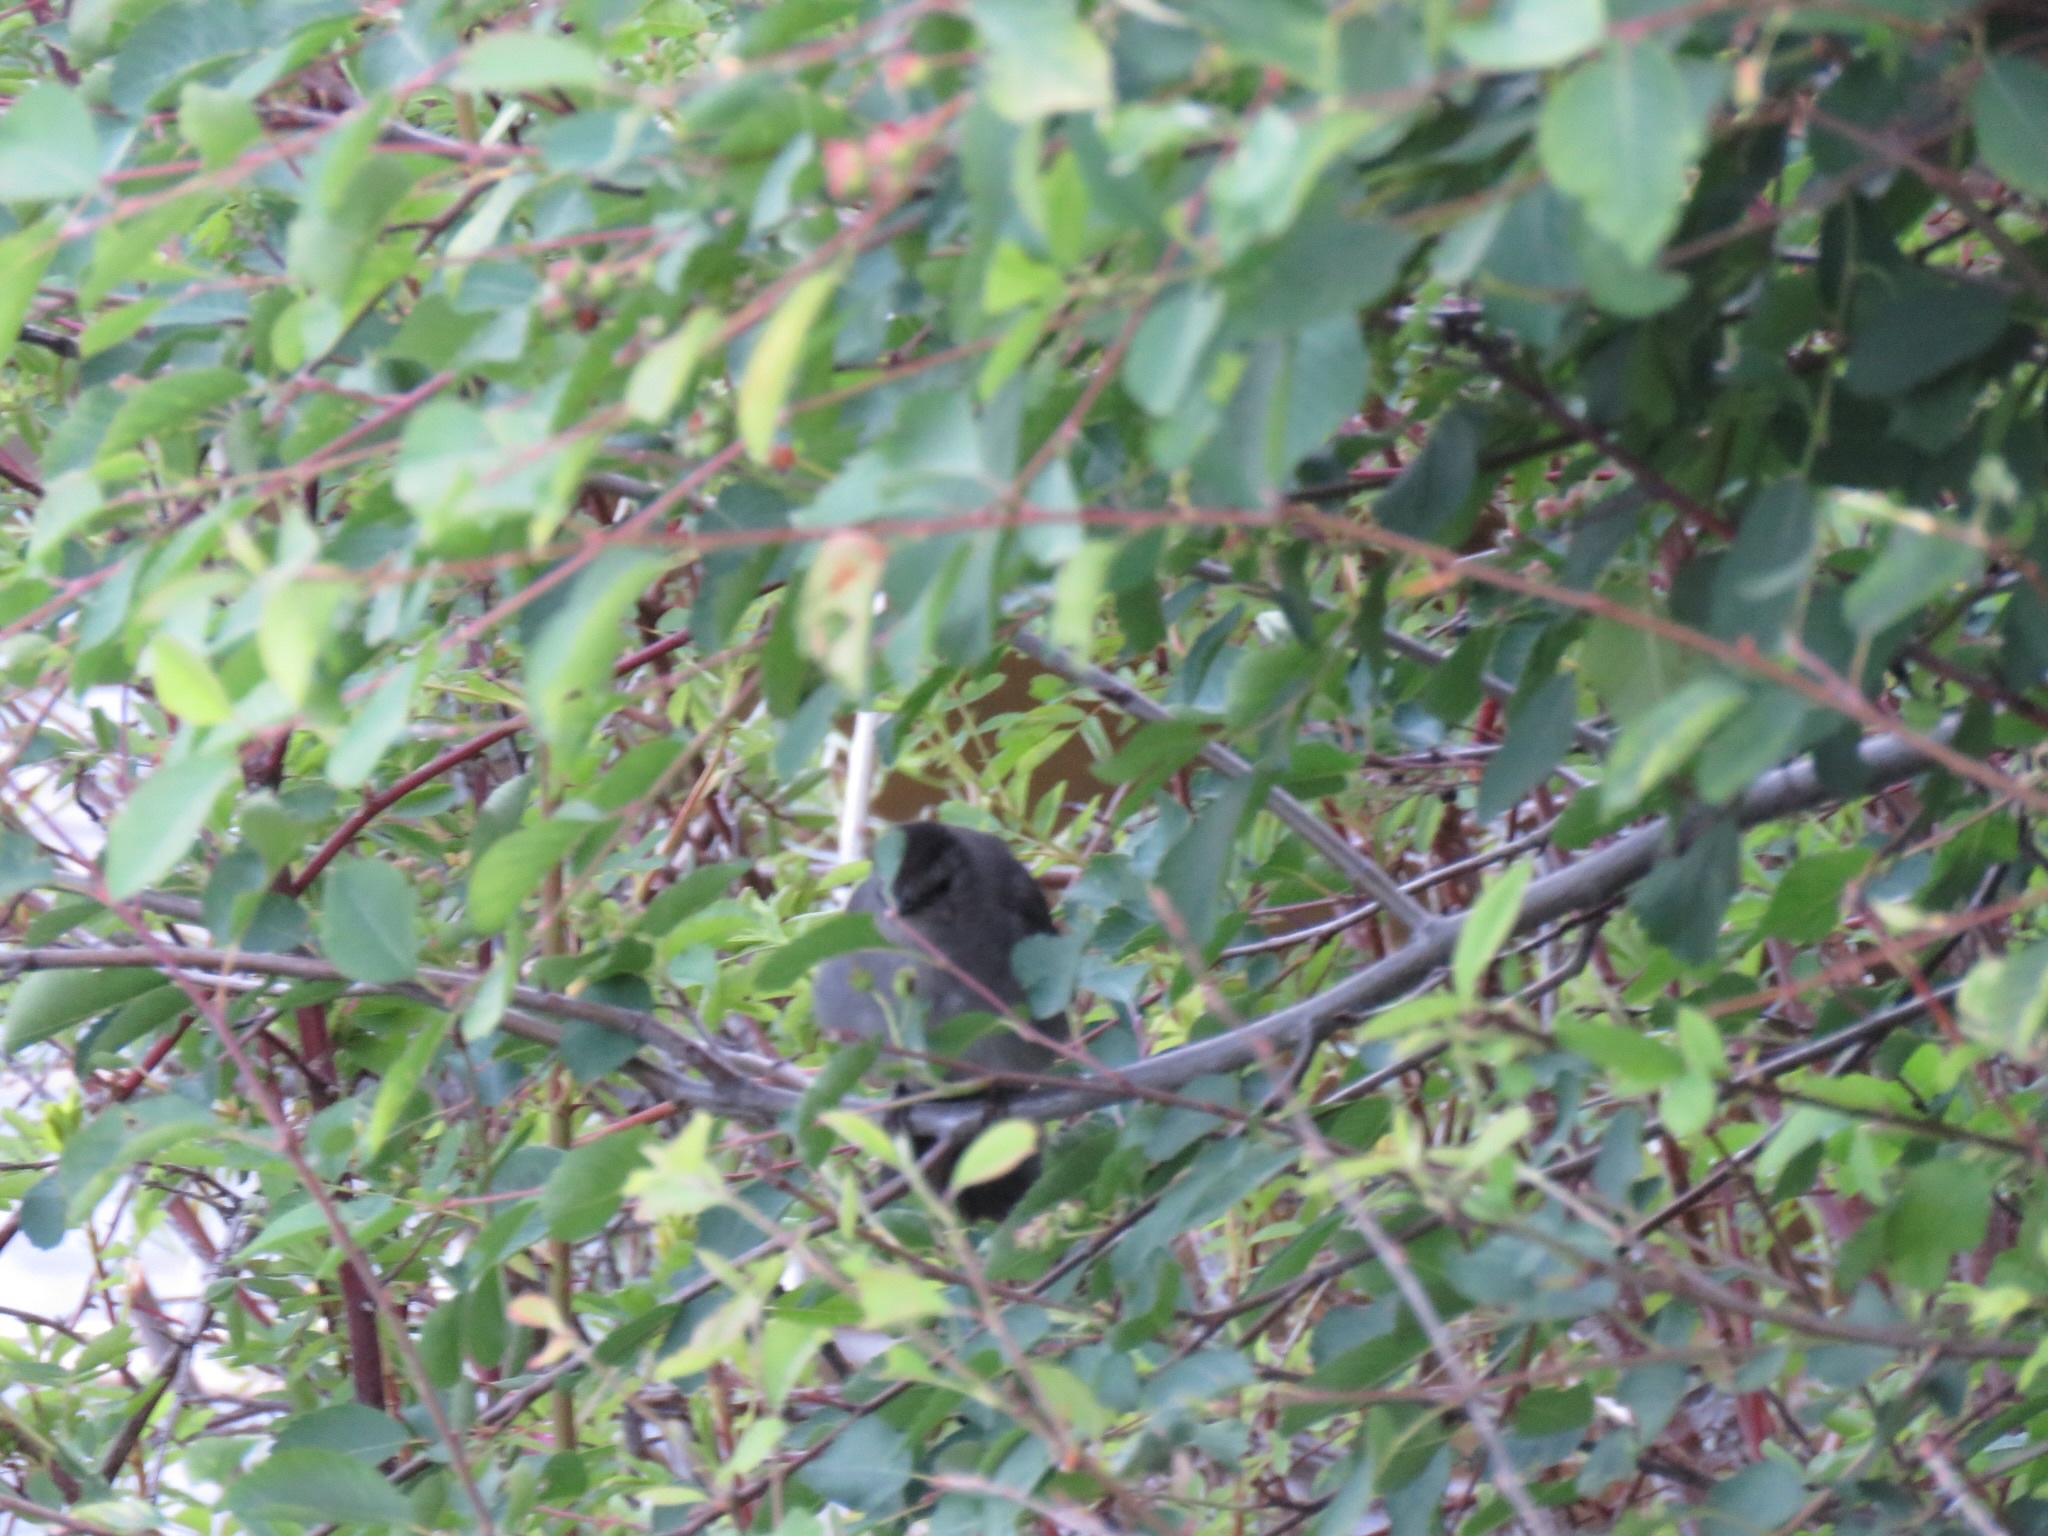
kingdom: Animalia
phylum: Chordata
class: Aves
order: Passeriformes
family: Mimidae
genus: Dumetella
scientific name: Dumetella carolinensis
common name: Gray catbird
